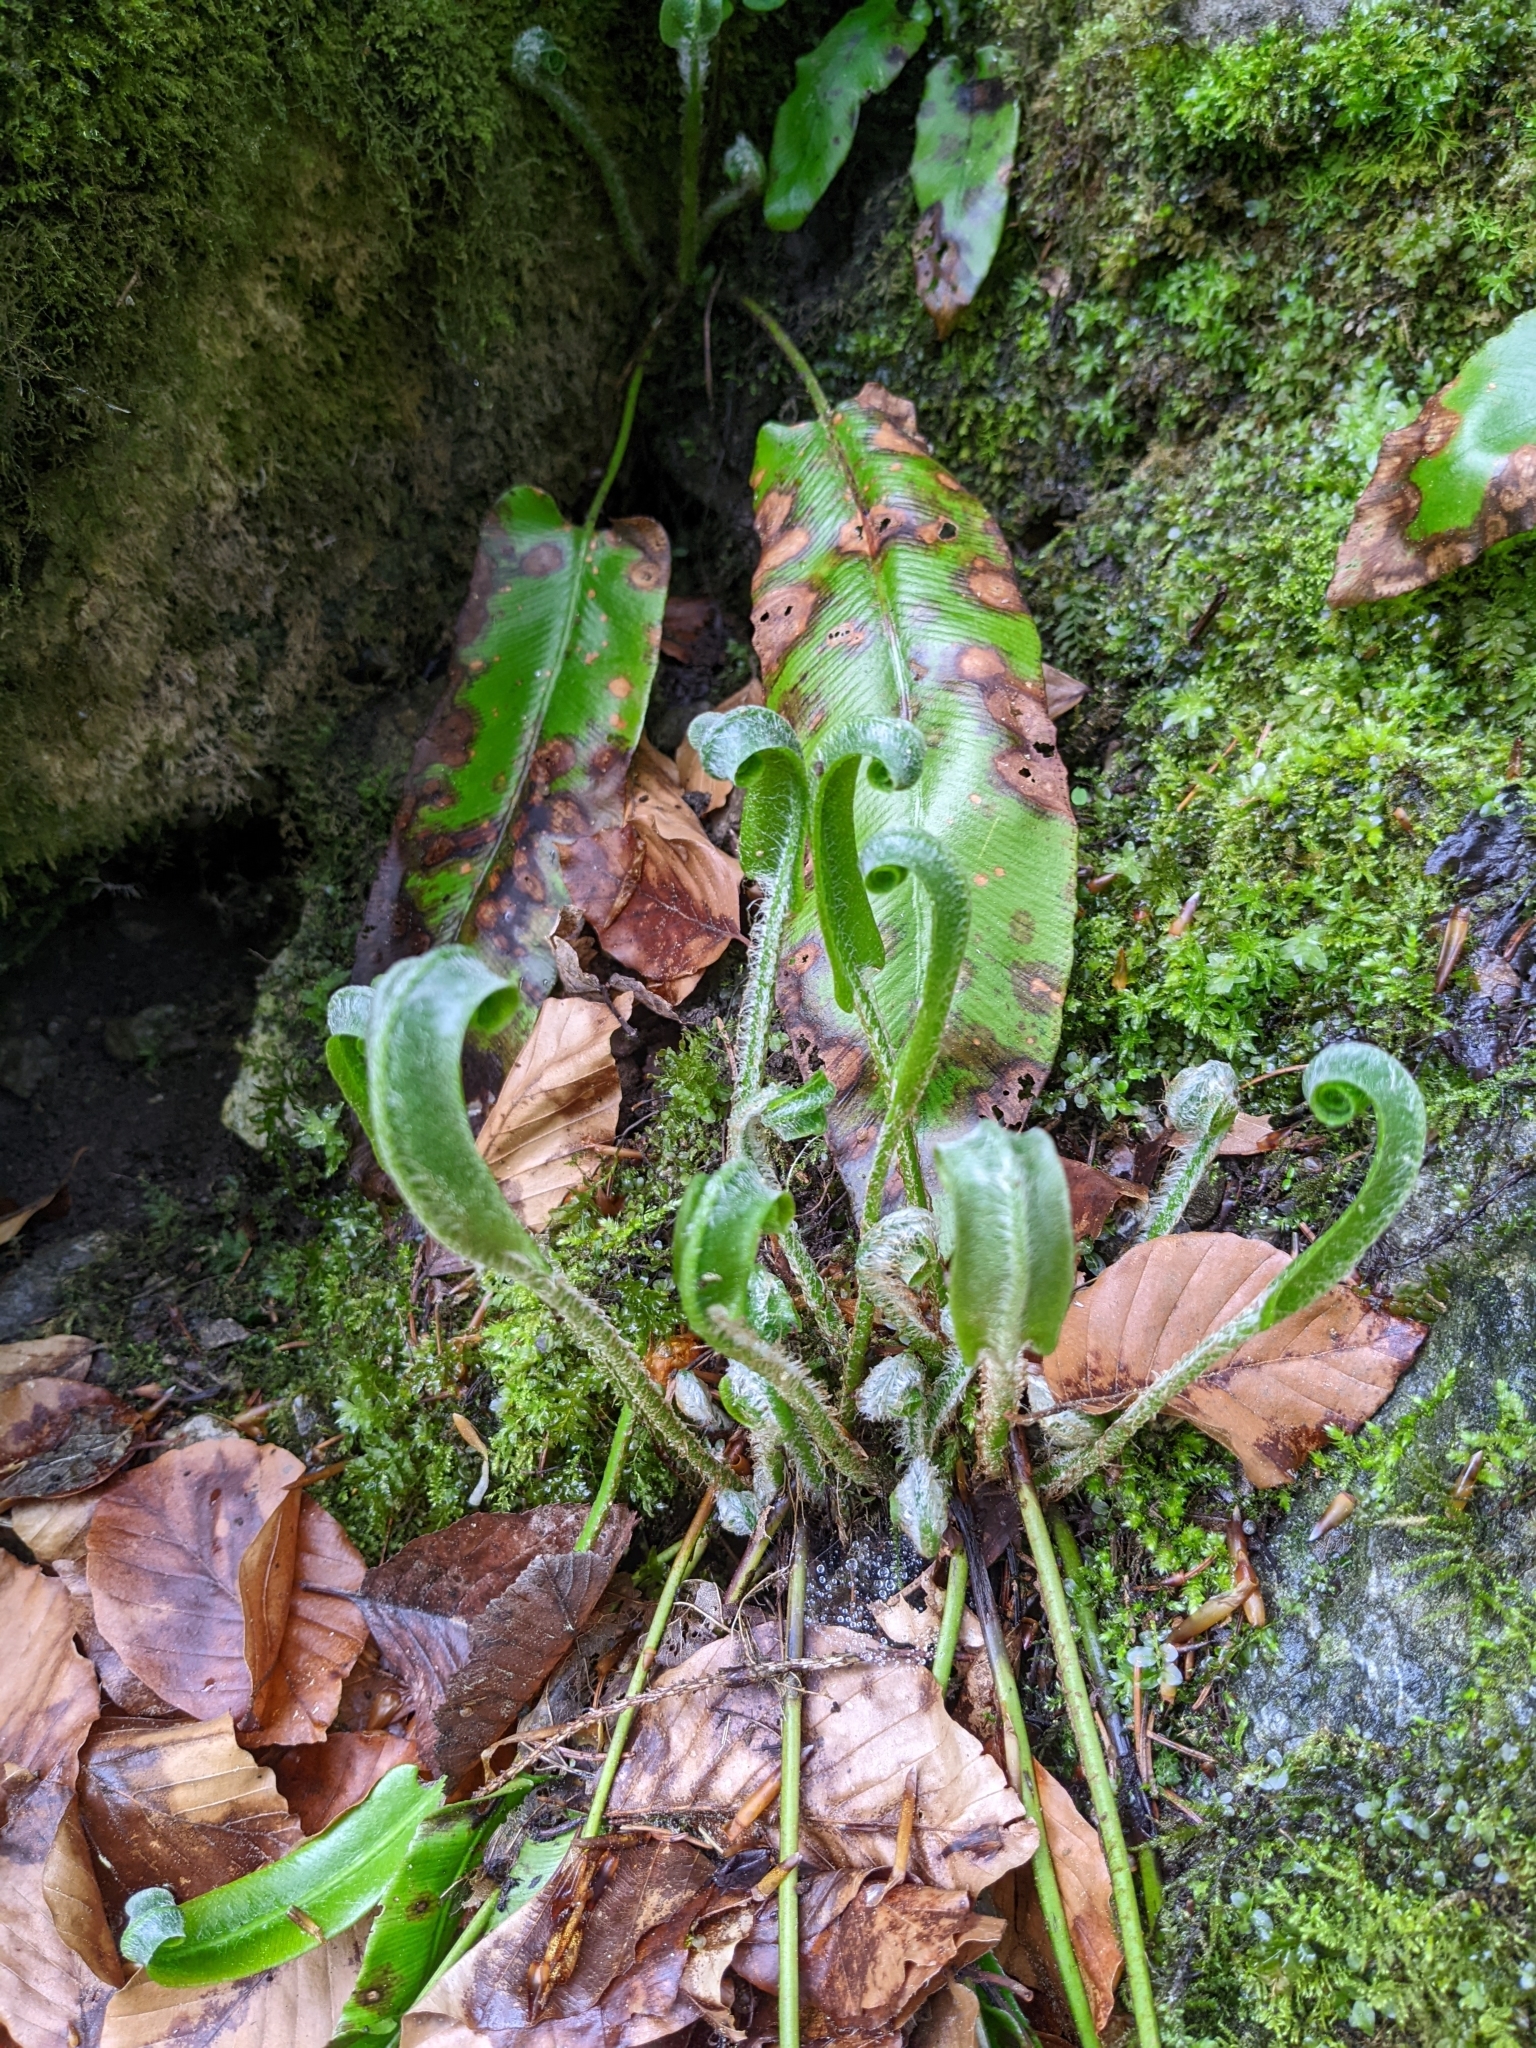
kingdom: Plantae
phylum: Tracheophyta
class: Polypodiopsida
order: Polypodiales
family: Aspleniaceae
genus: Asplenium
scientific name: Asplenium scolopendrium
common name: Hart's-tongue fern
